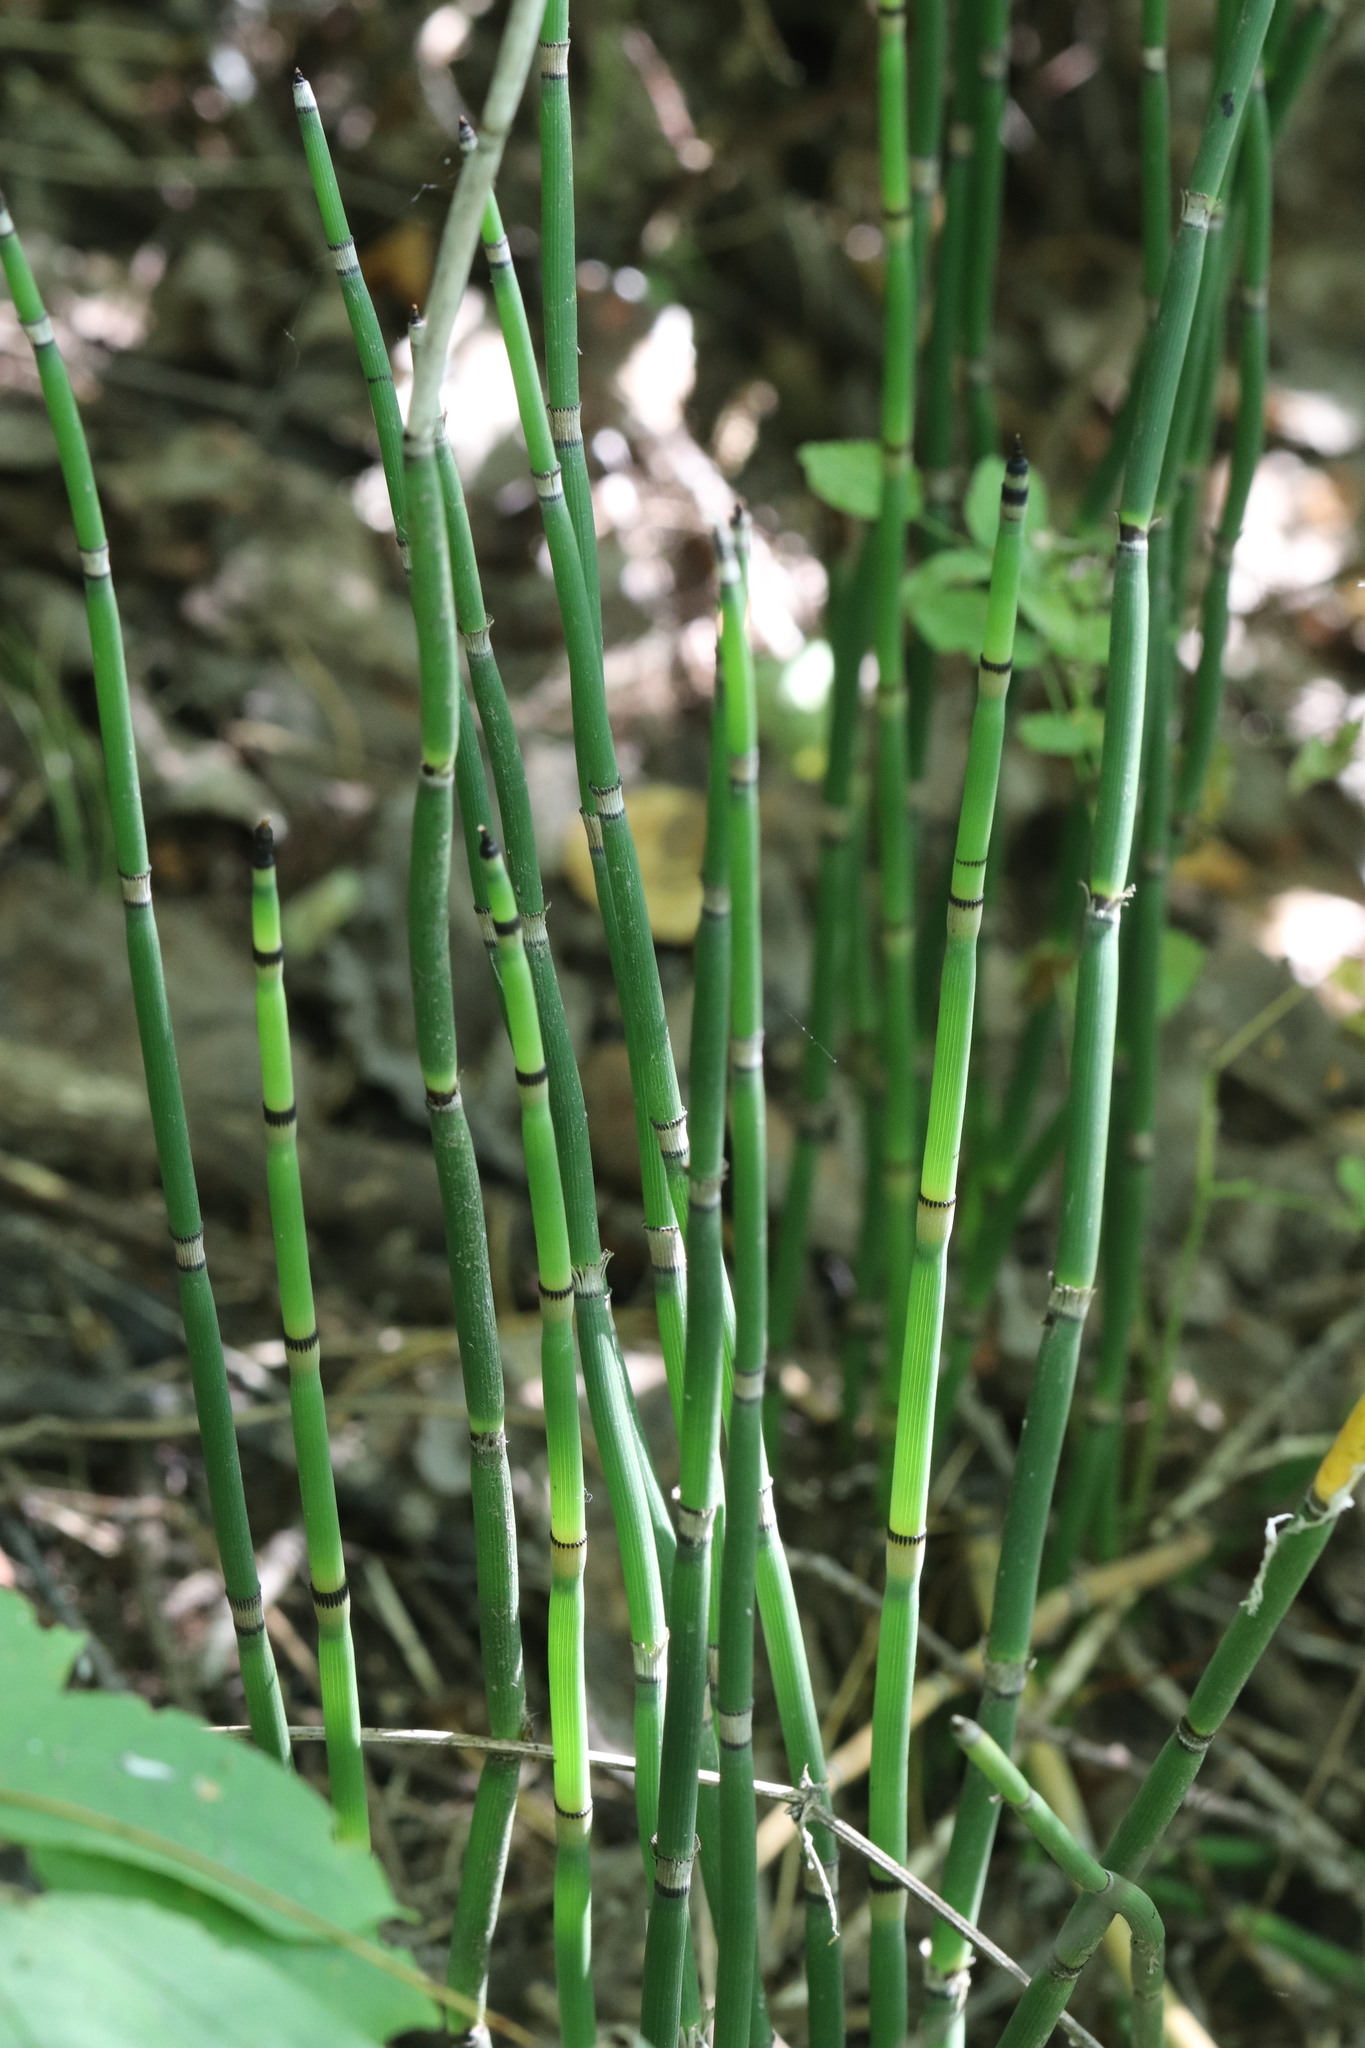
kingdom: Plantae
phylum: Tracheophyta
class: Polypodiopsida
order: Equisetales
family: Equisetaceae
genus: Equisetum
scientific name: Equisetum hyemale
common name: Rough horsetail
